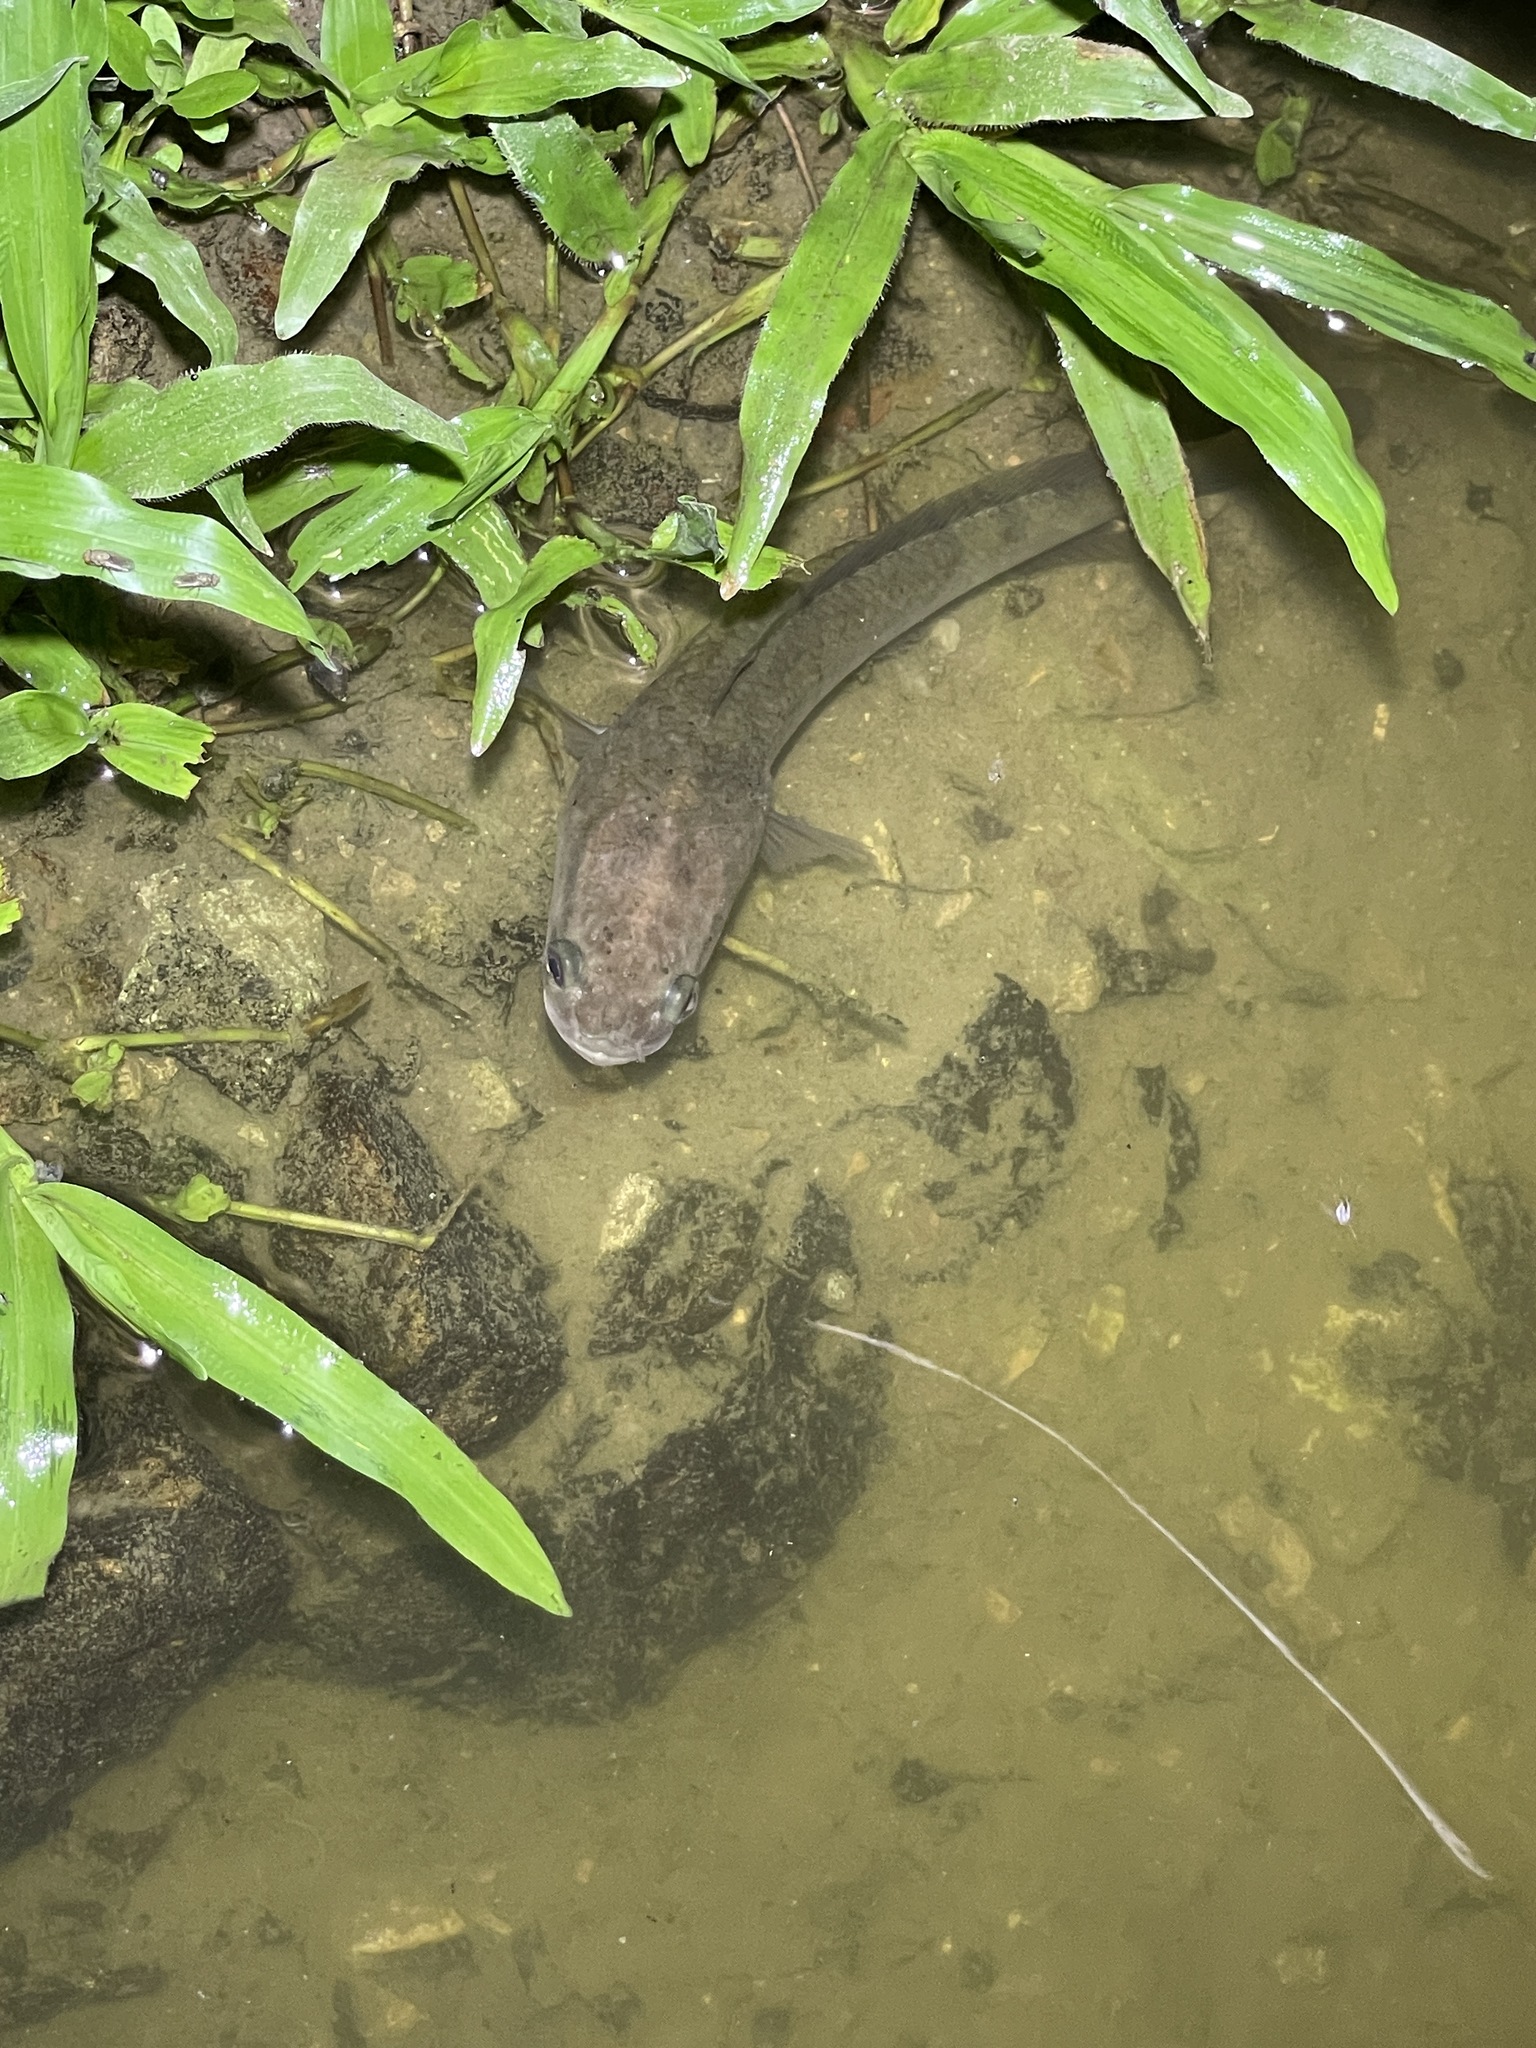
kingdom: Animalia
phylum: Chordata
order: Perciformes
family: Channidae
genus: Channa
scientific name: Channa striata
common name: Striped snakehead
